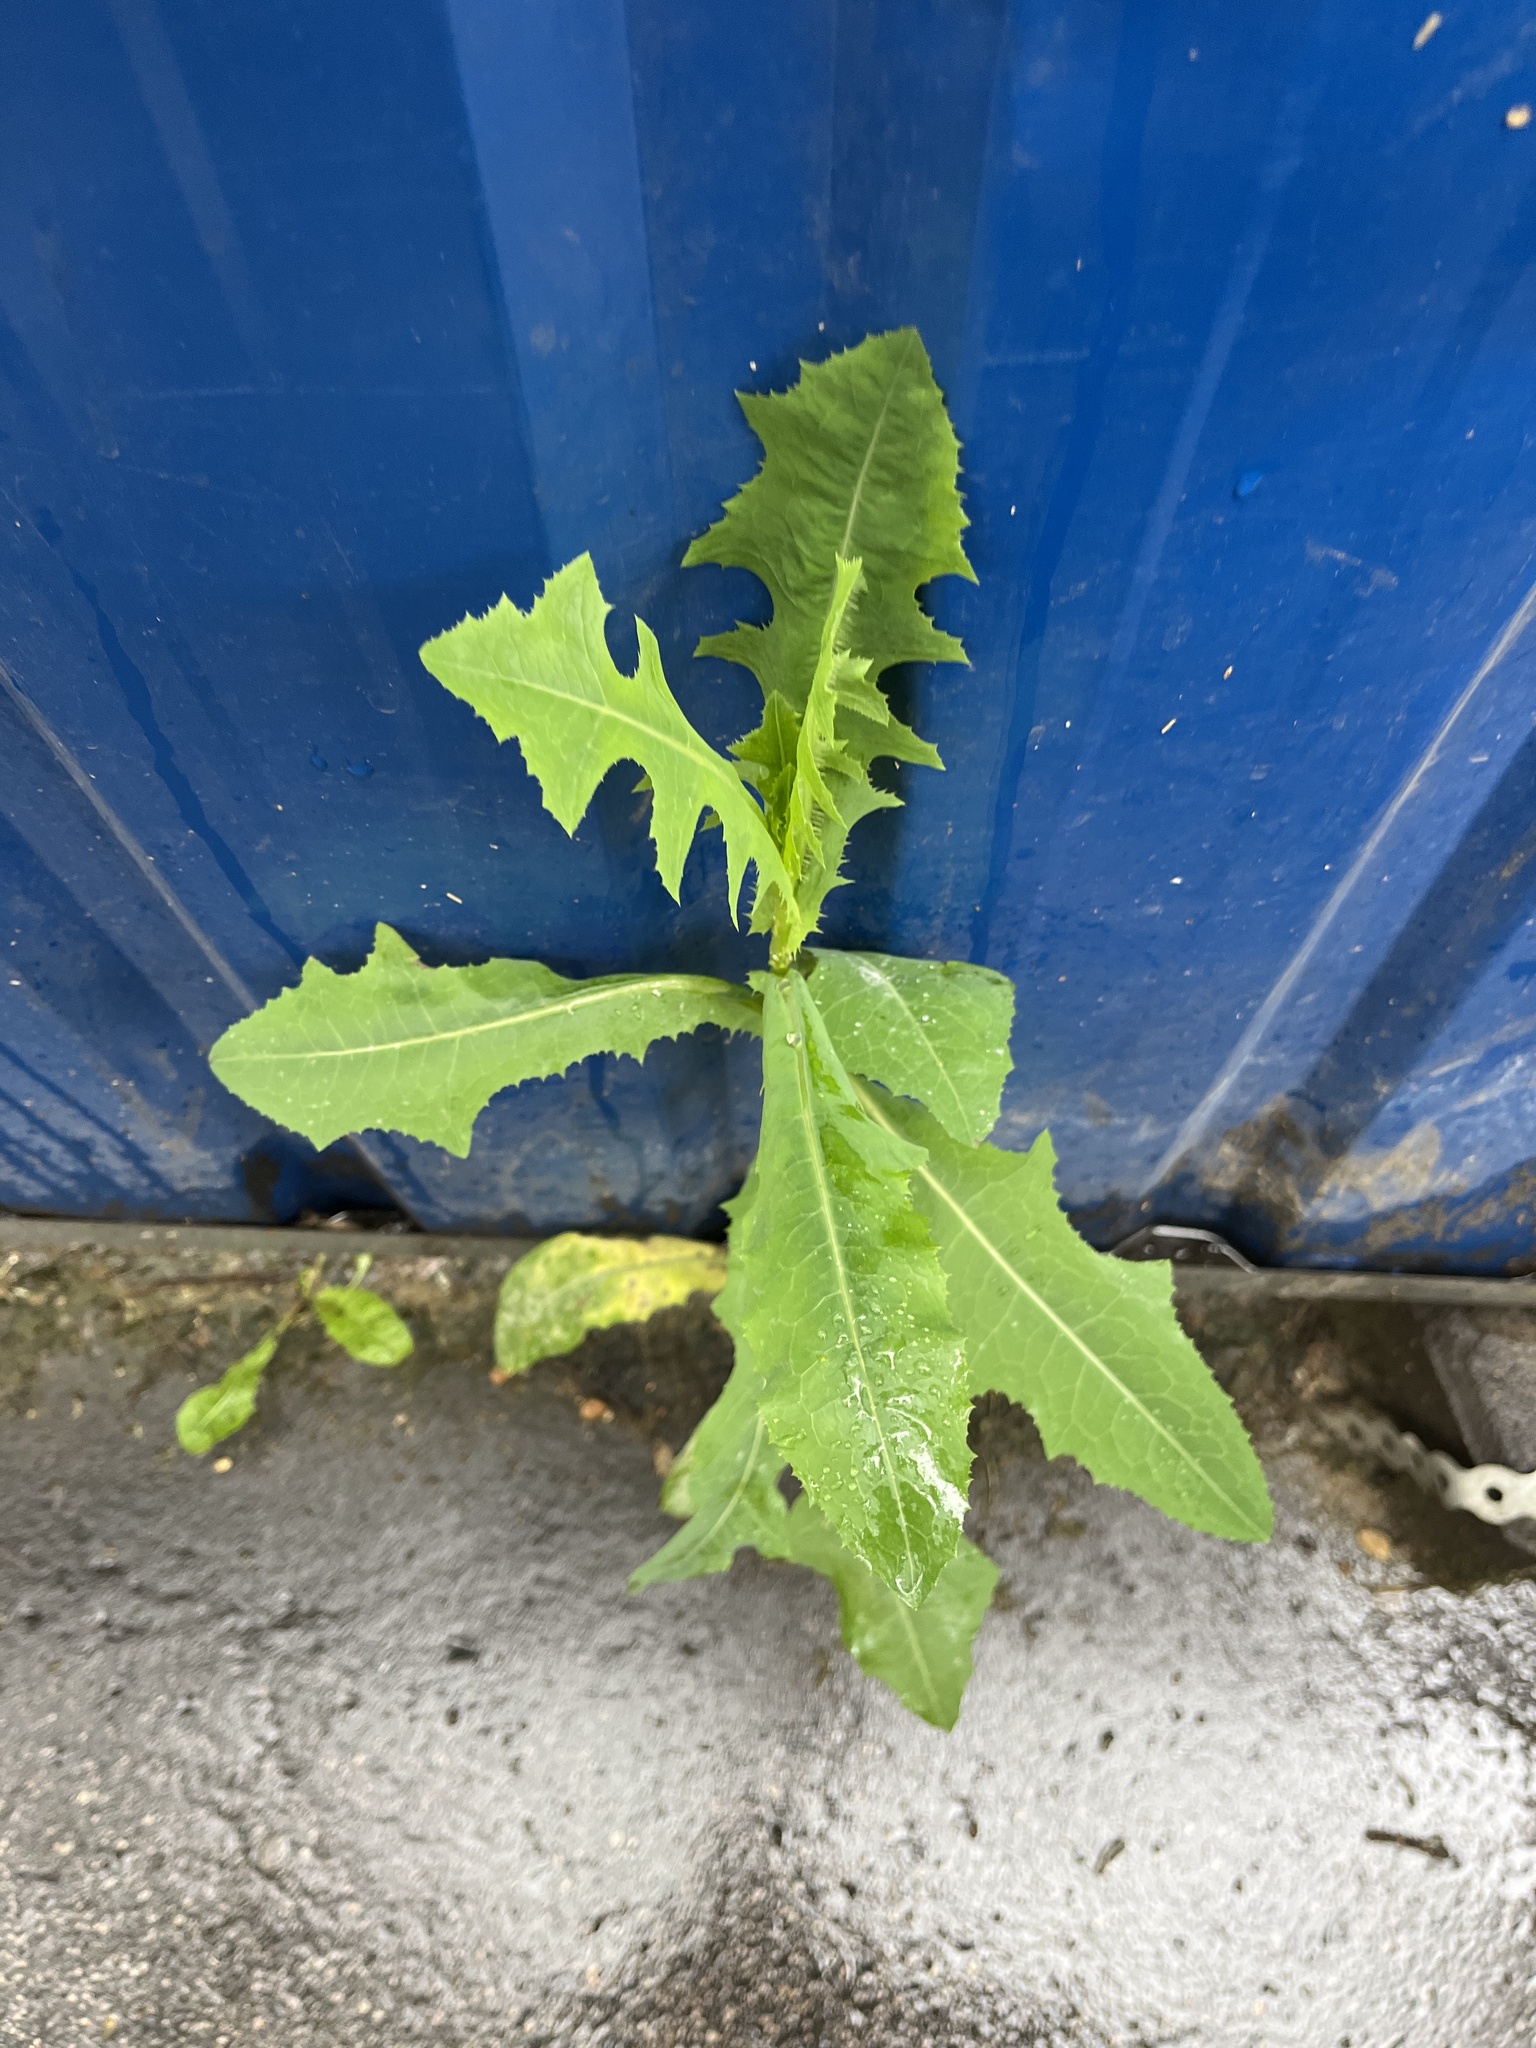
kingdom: Plantae
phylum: Tracheophyta
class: Magnoliopsida
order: Asterales
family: Asteraceae
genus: Lactuca
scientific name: Lactuca serriola
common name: Prickly lettuce
